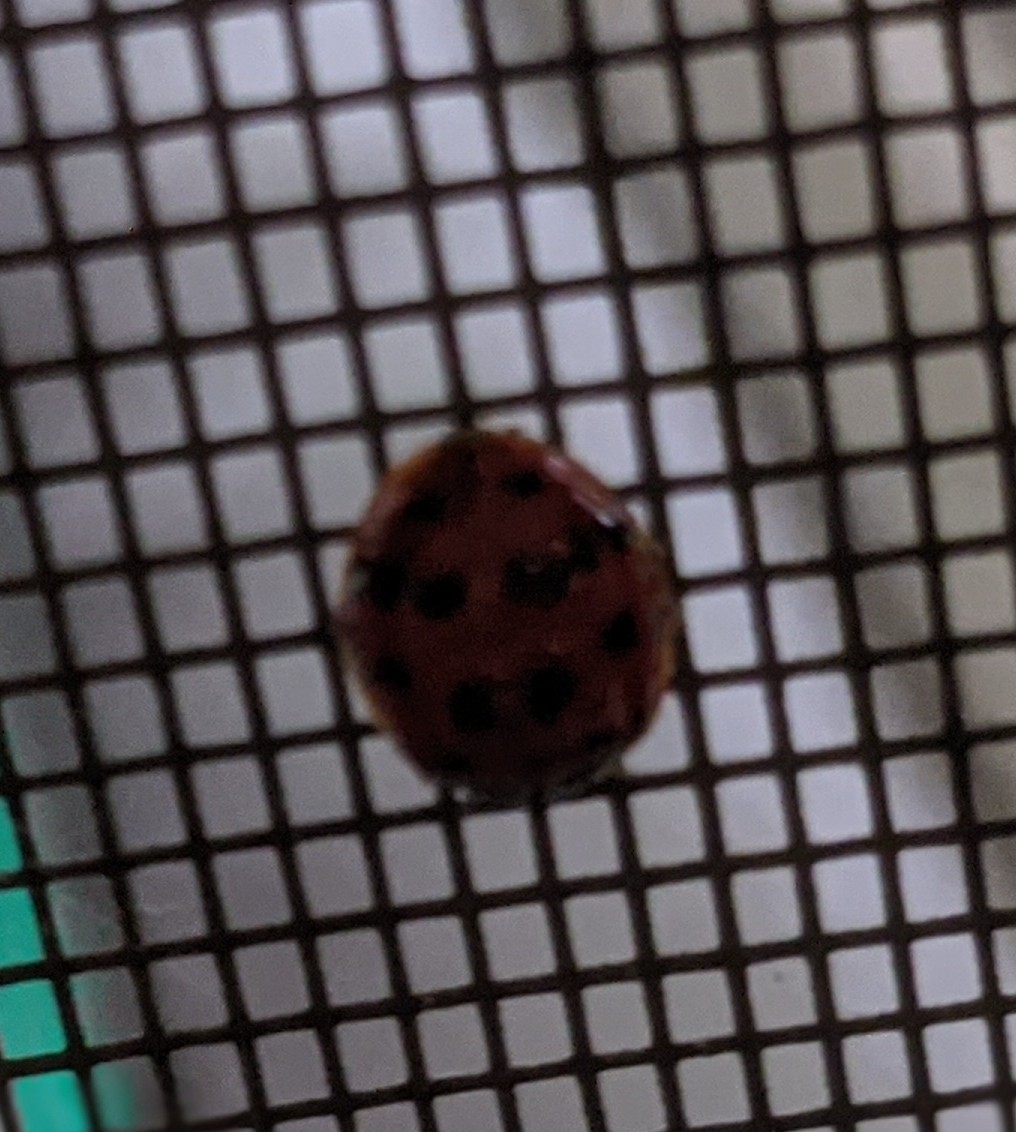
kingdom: Animalia
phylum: Arthropoda
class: Insecta
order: Coleoptera
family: Coccinellidae
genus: Harmonia
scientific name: Harmonia axyridis
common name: Harlequin ladybird
